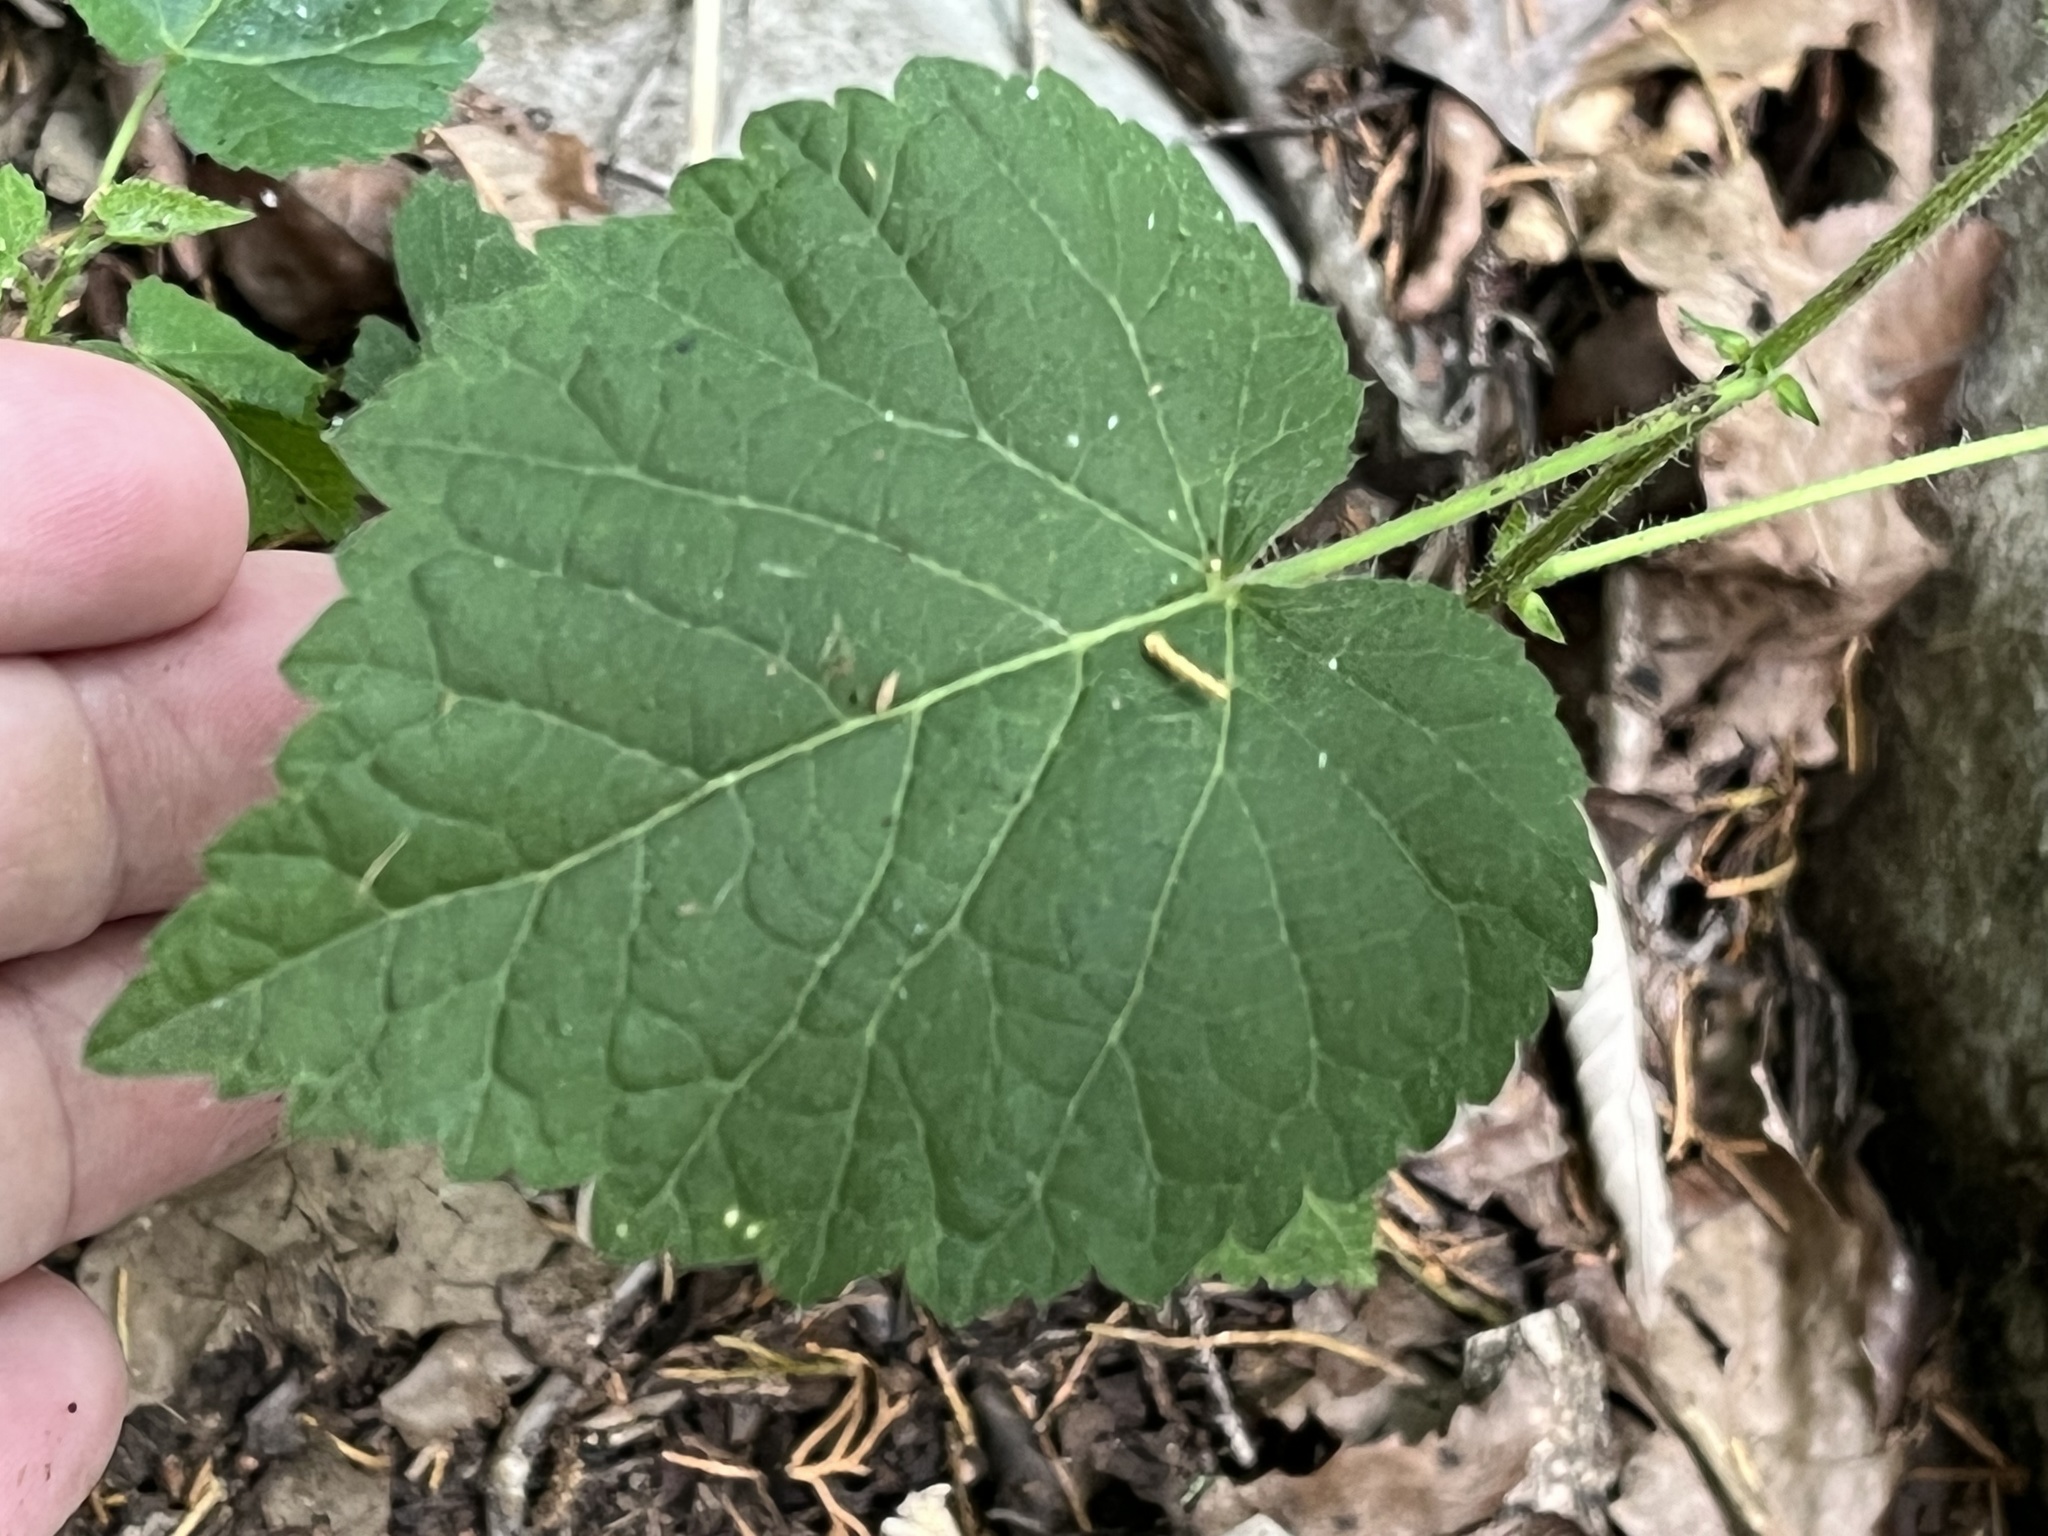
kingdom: Plantae
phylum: Tracheophyta
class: Magnoliopsida
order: Malpighiales
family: Euphorbiaceae
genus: Tragia
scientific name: Tragia cordata
